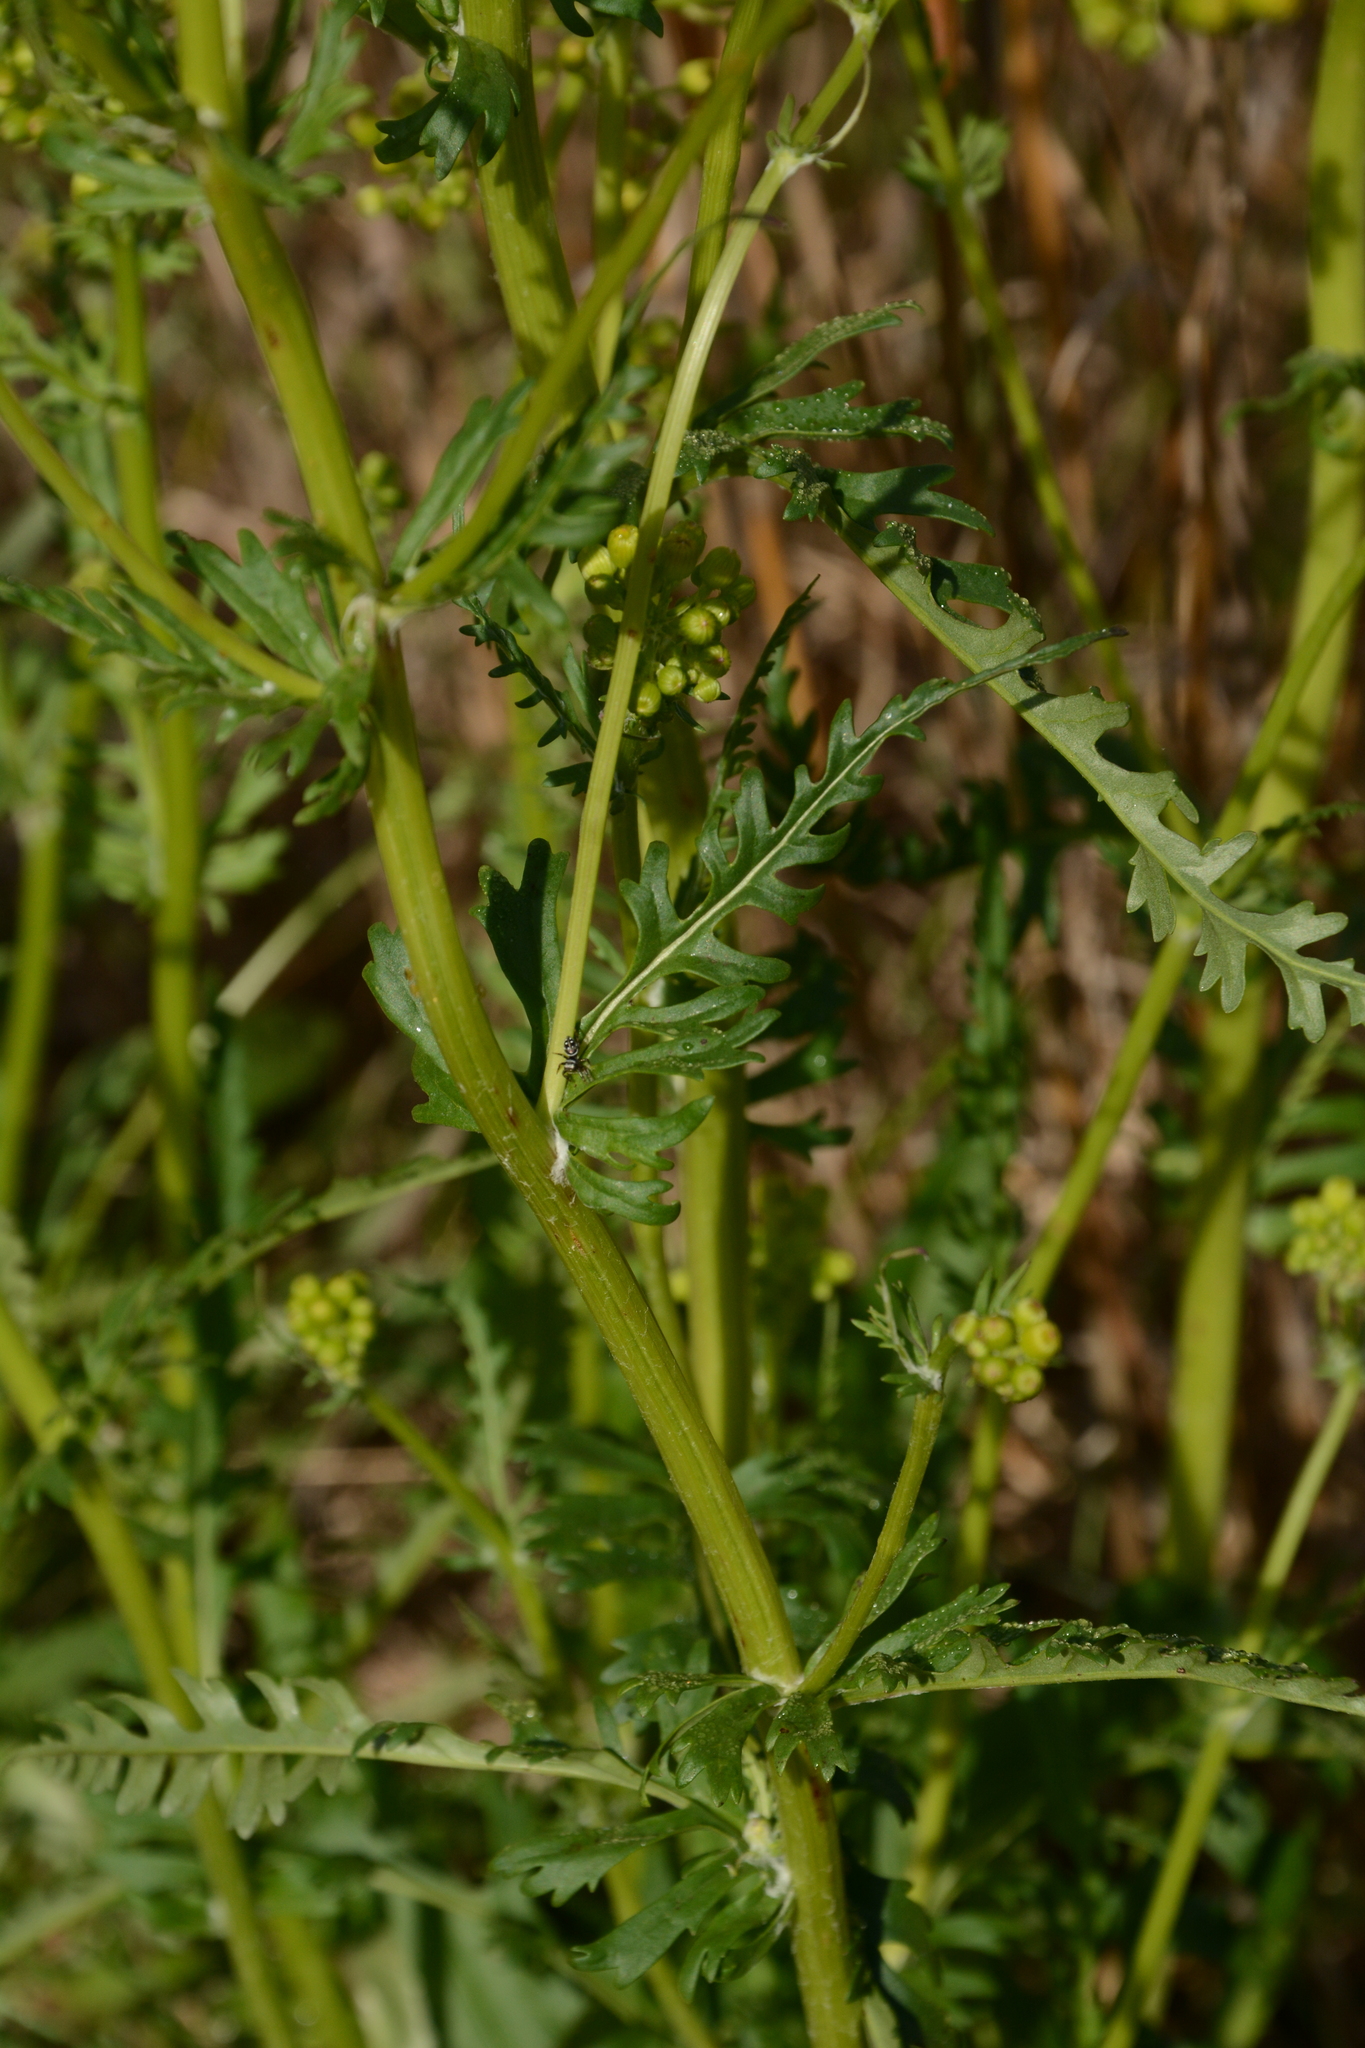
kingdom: Plantae
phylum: Tracheophyta
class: Magnoliopsida
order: Asterales
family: Asteraceae
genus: Packera
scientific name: Packera anonyma
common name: Small ragwort
